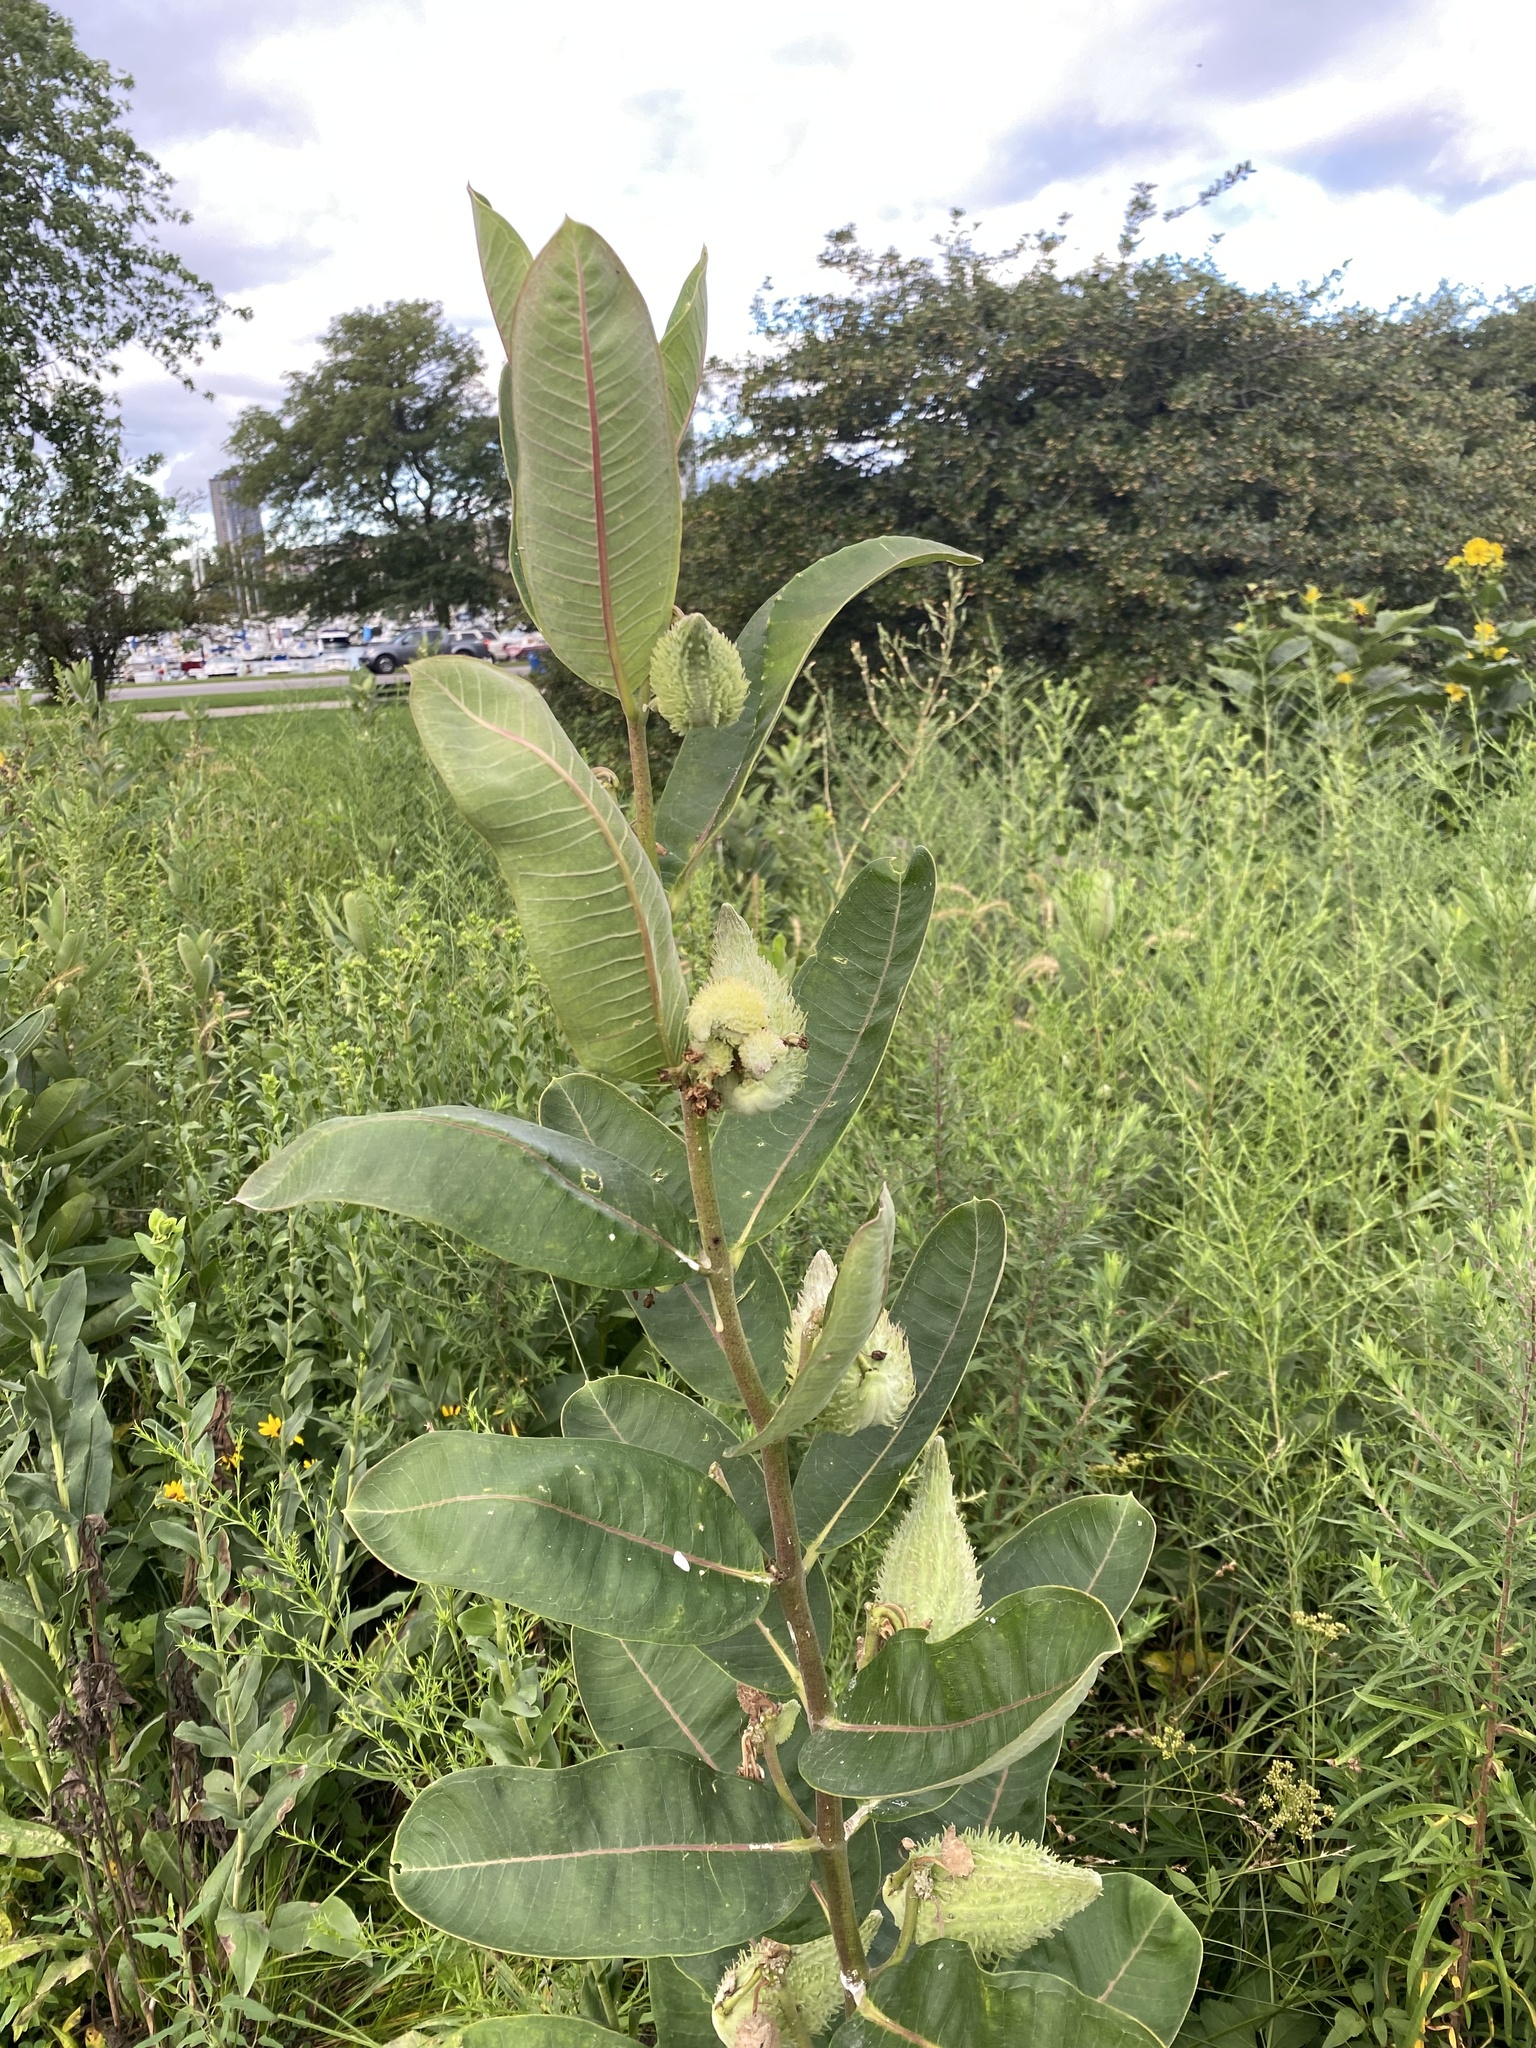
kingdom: Plantae
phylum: Tracheophyta
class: Magnoliopsida
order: Gentianales
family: Apocynaceae
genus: Asclepias
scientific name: Asclepias syriaca
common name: Common milkweed
